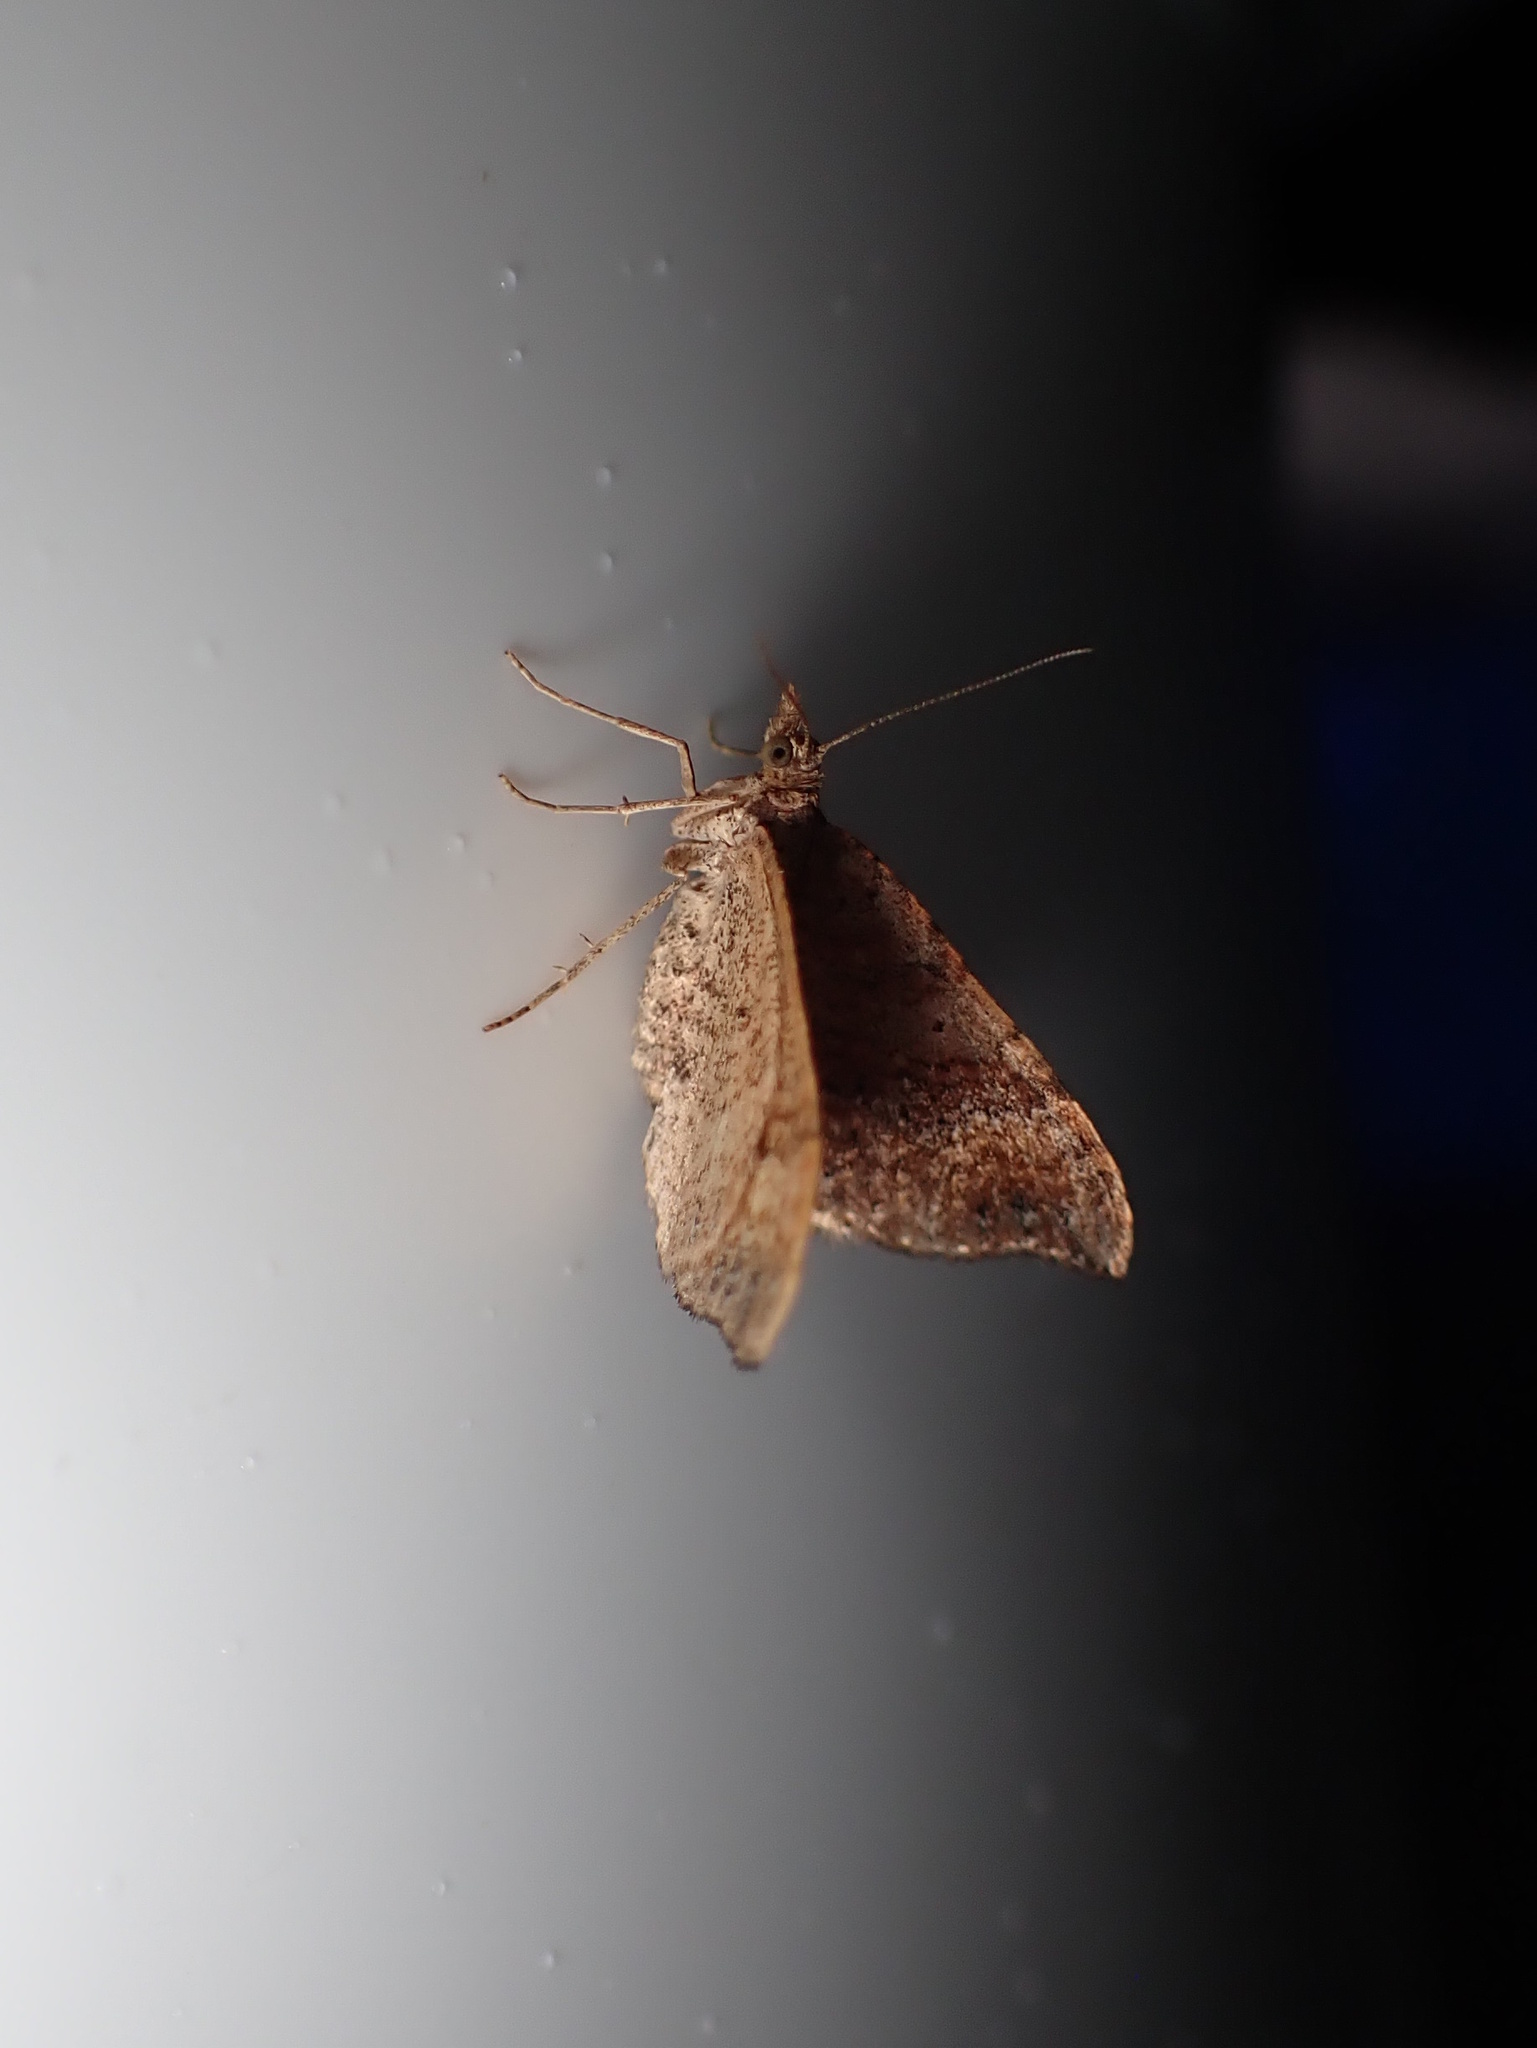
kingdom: Animalia
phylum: Arthropoda
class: Insecta
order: Lepidoptera
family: Geometridae
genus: Homodotis
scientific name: Homodotis megaspilata
